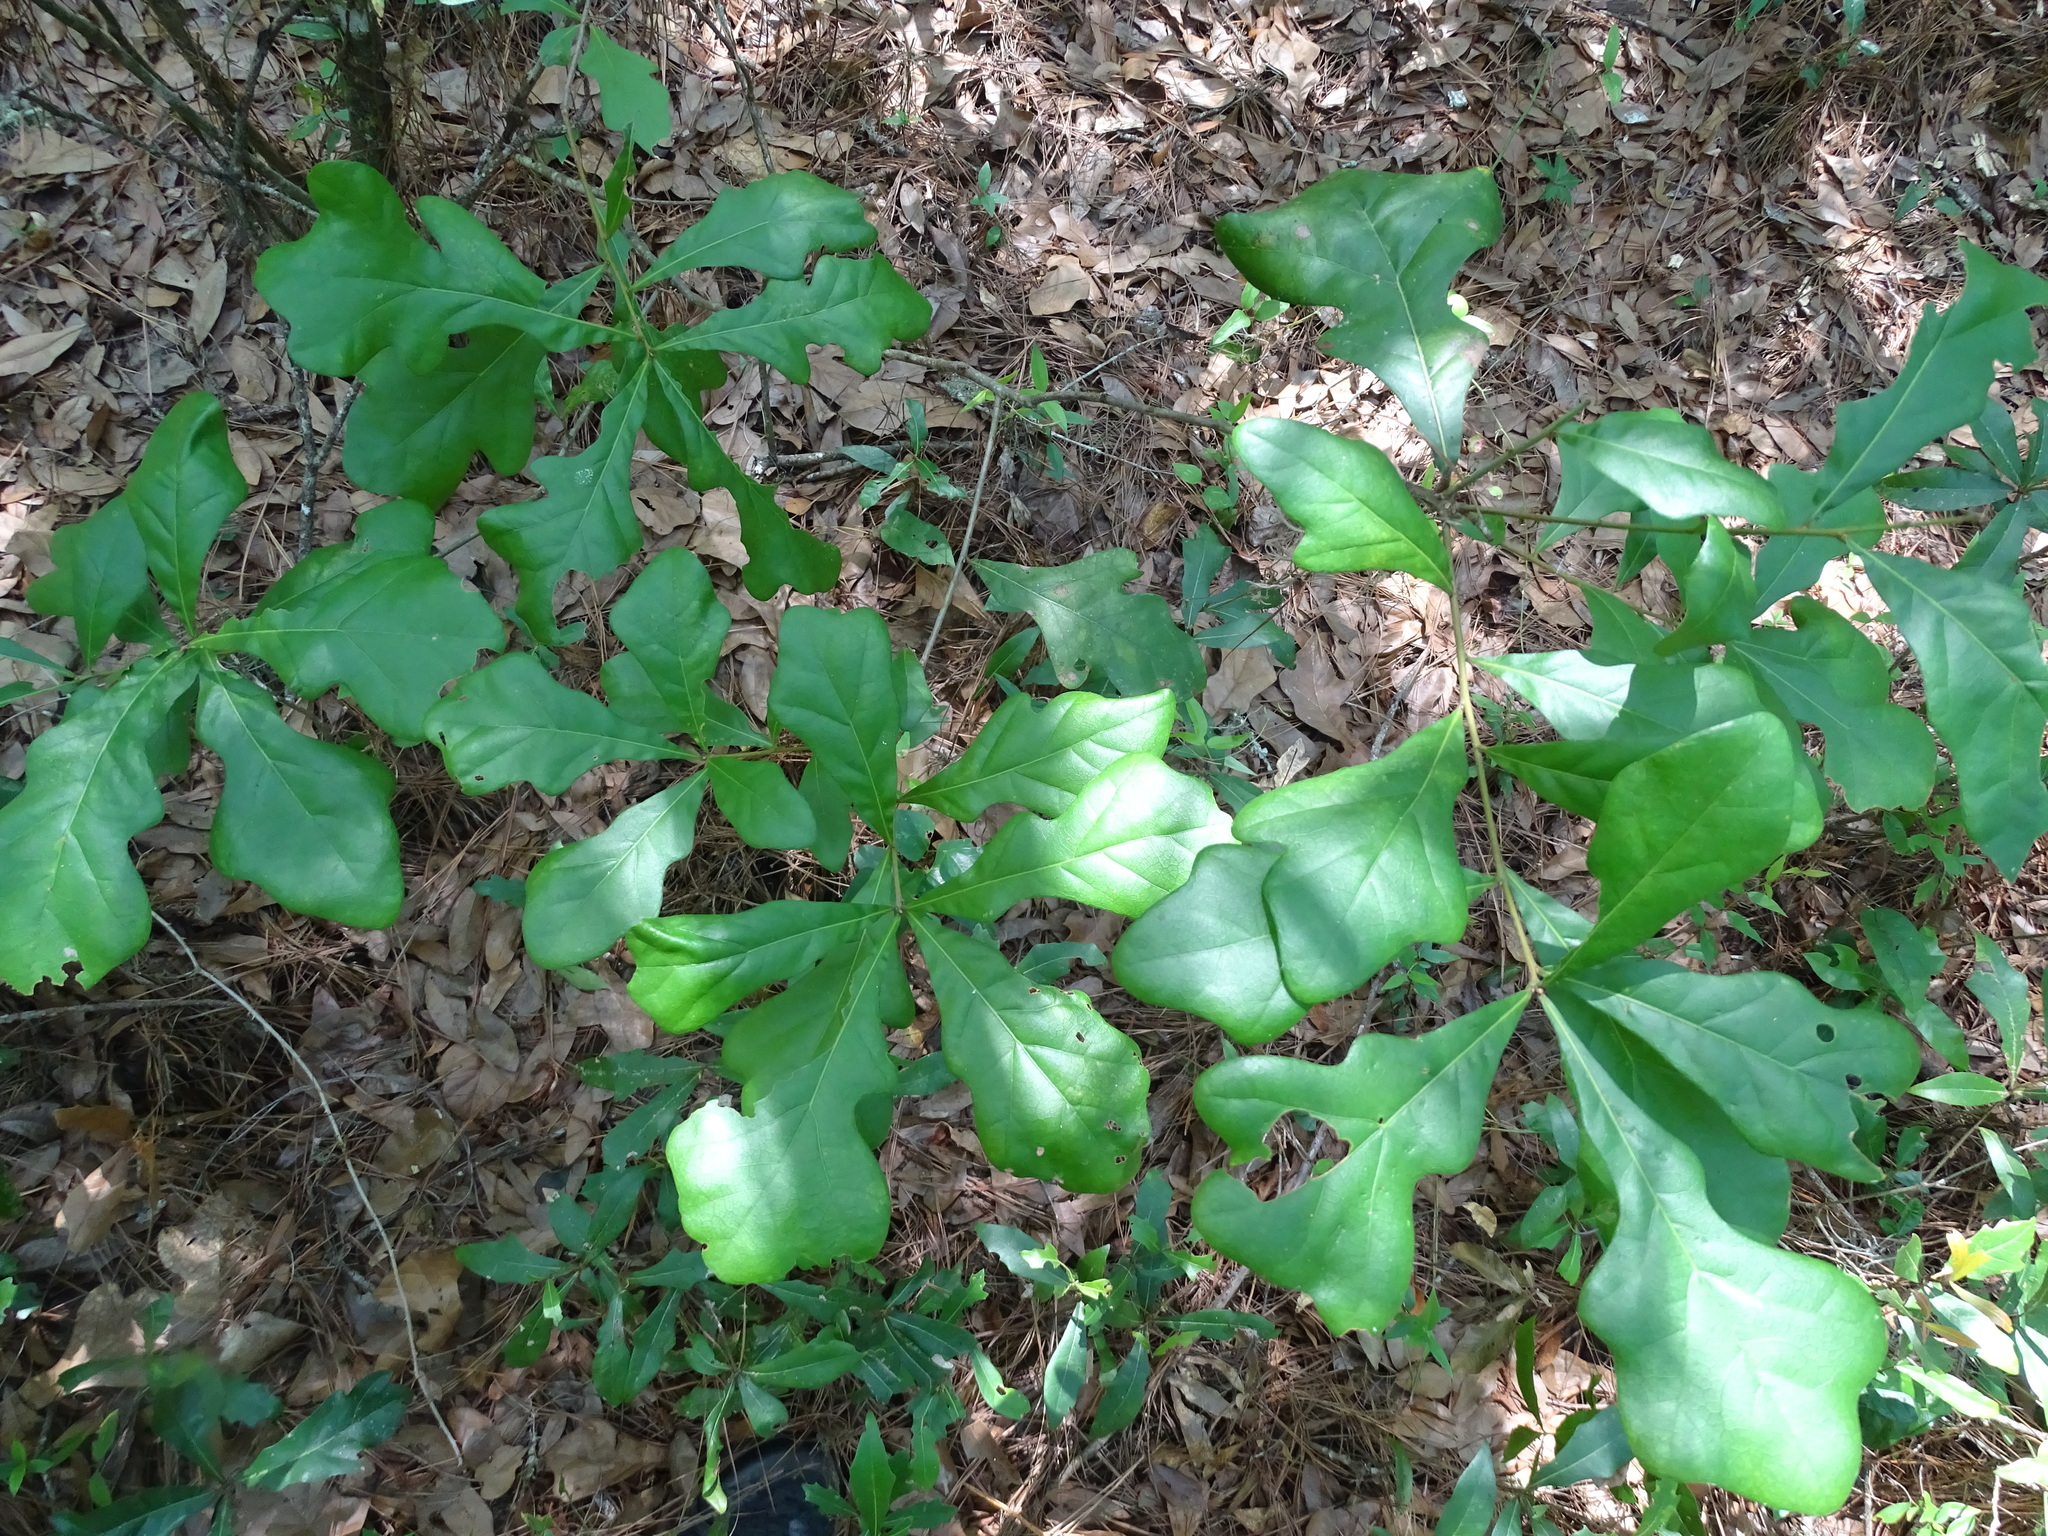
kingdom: Plantae
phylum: Tracheophyta
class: Magnoliopsida
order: Fagales
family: Fagaceae
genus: Quercus
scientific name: Quercus nigra
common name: Water oak
